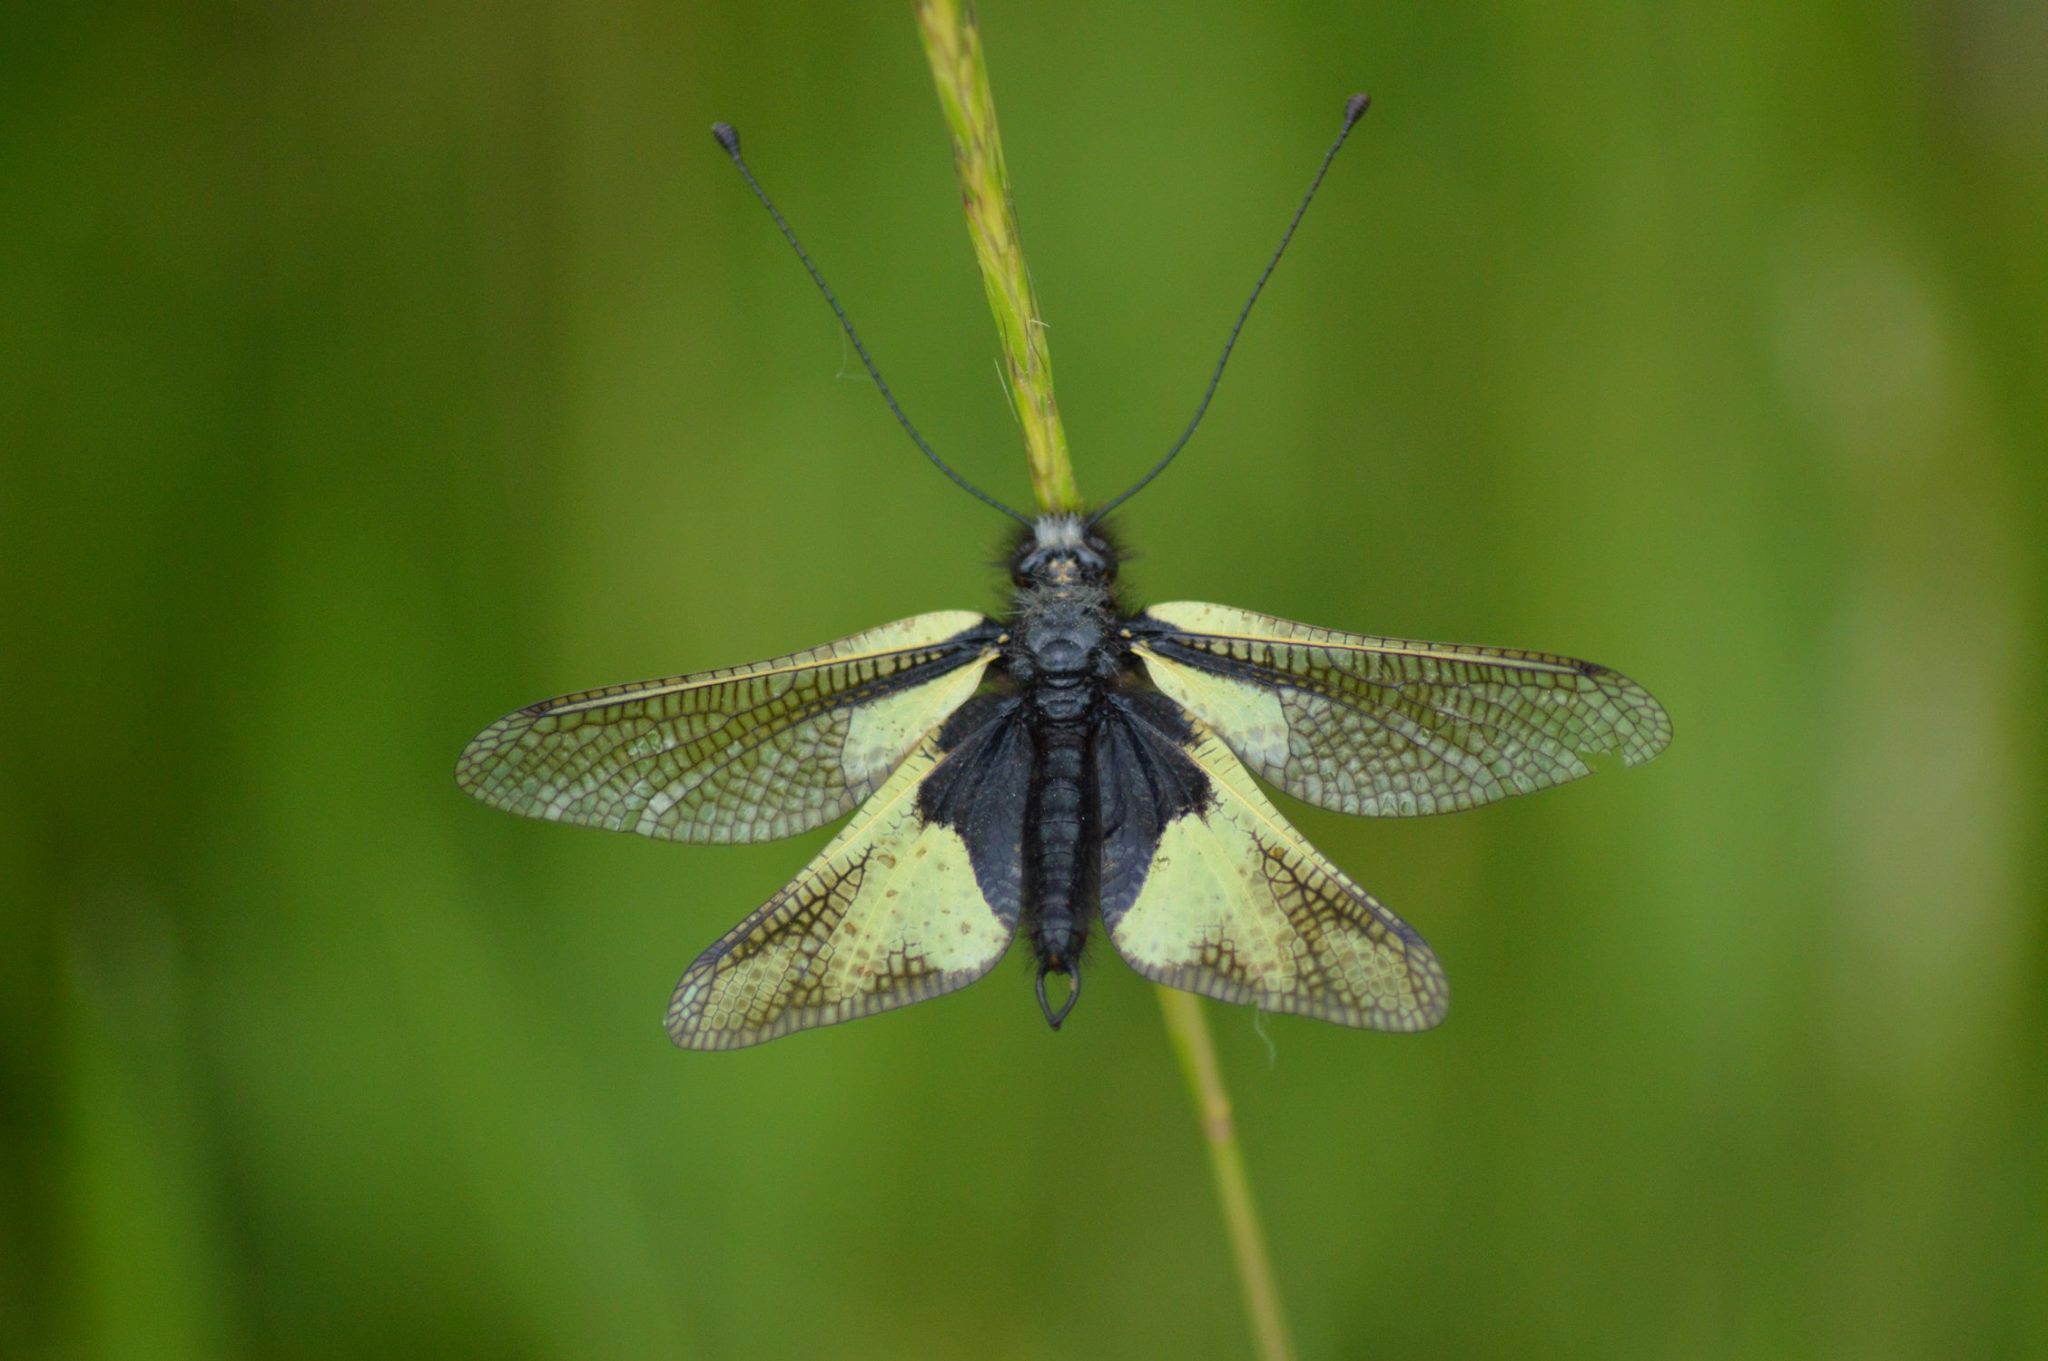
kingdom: Animalia
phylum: Arthropoda
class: Insecta
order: Neuroptera
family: Ascalaphidae
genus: Libelloides
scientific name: Libelloides coccajus
